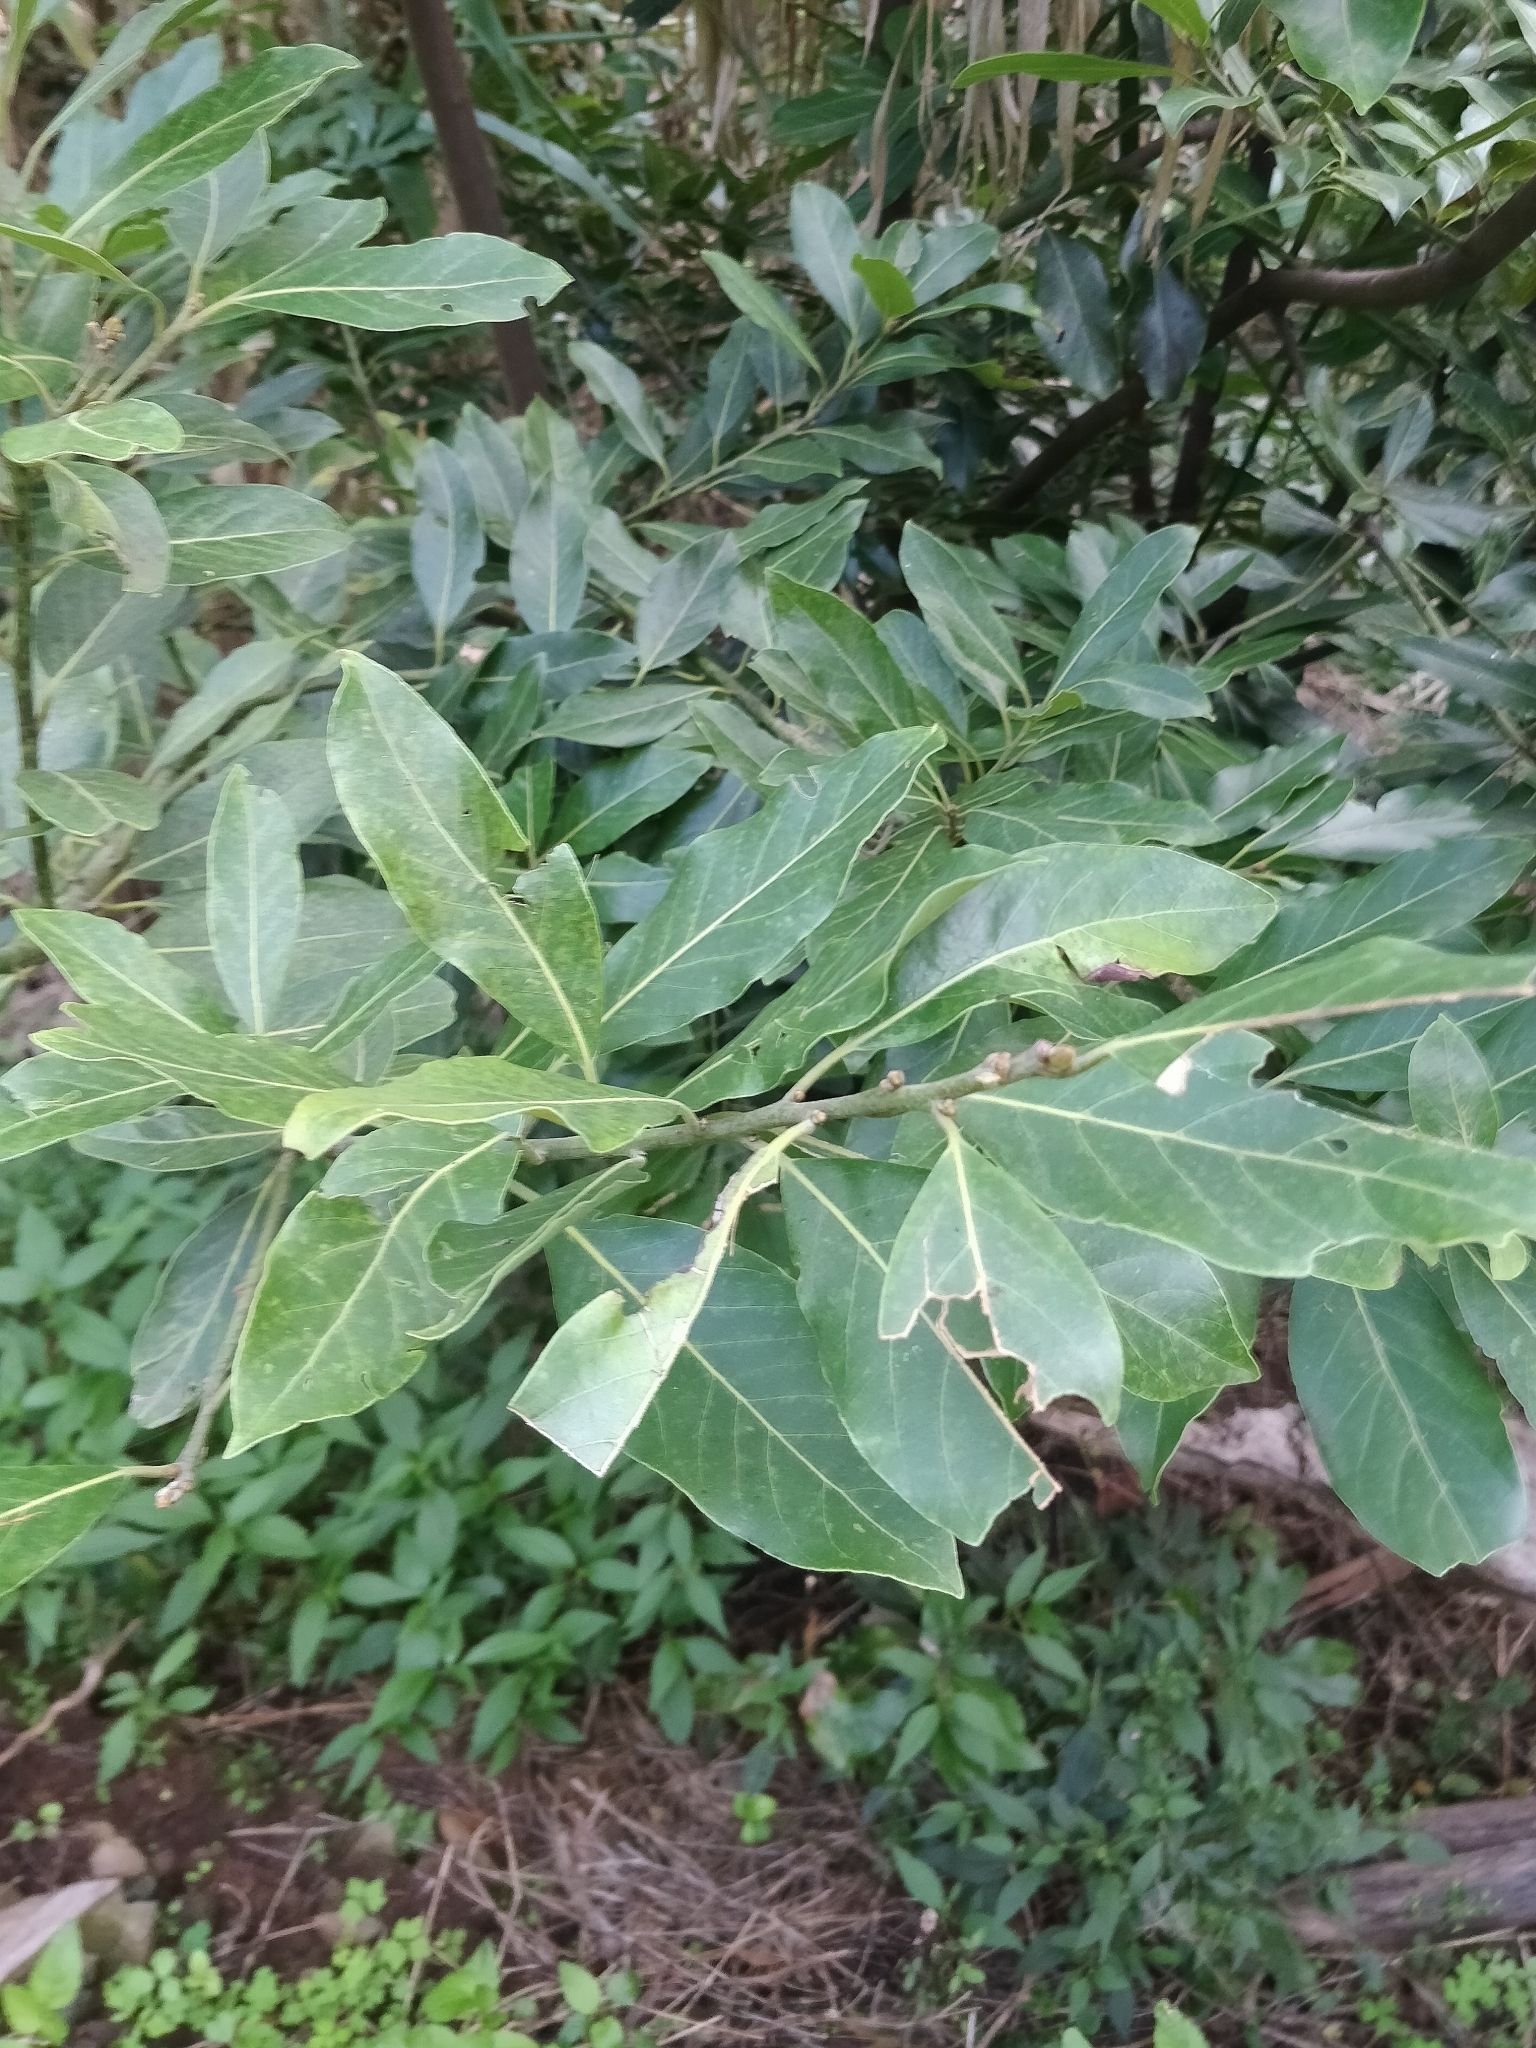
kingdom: Plantae
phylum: Tracheophyta
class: Magnoliopsida
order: Laurales
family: Lauraceae
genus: Laurus
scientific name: Laurus novocanariensis
